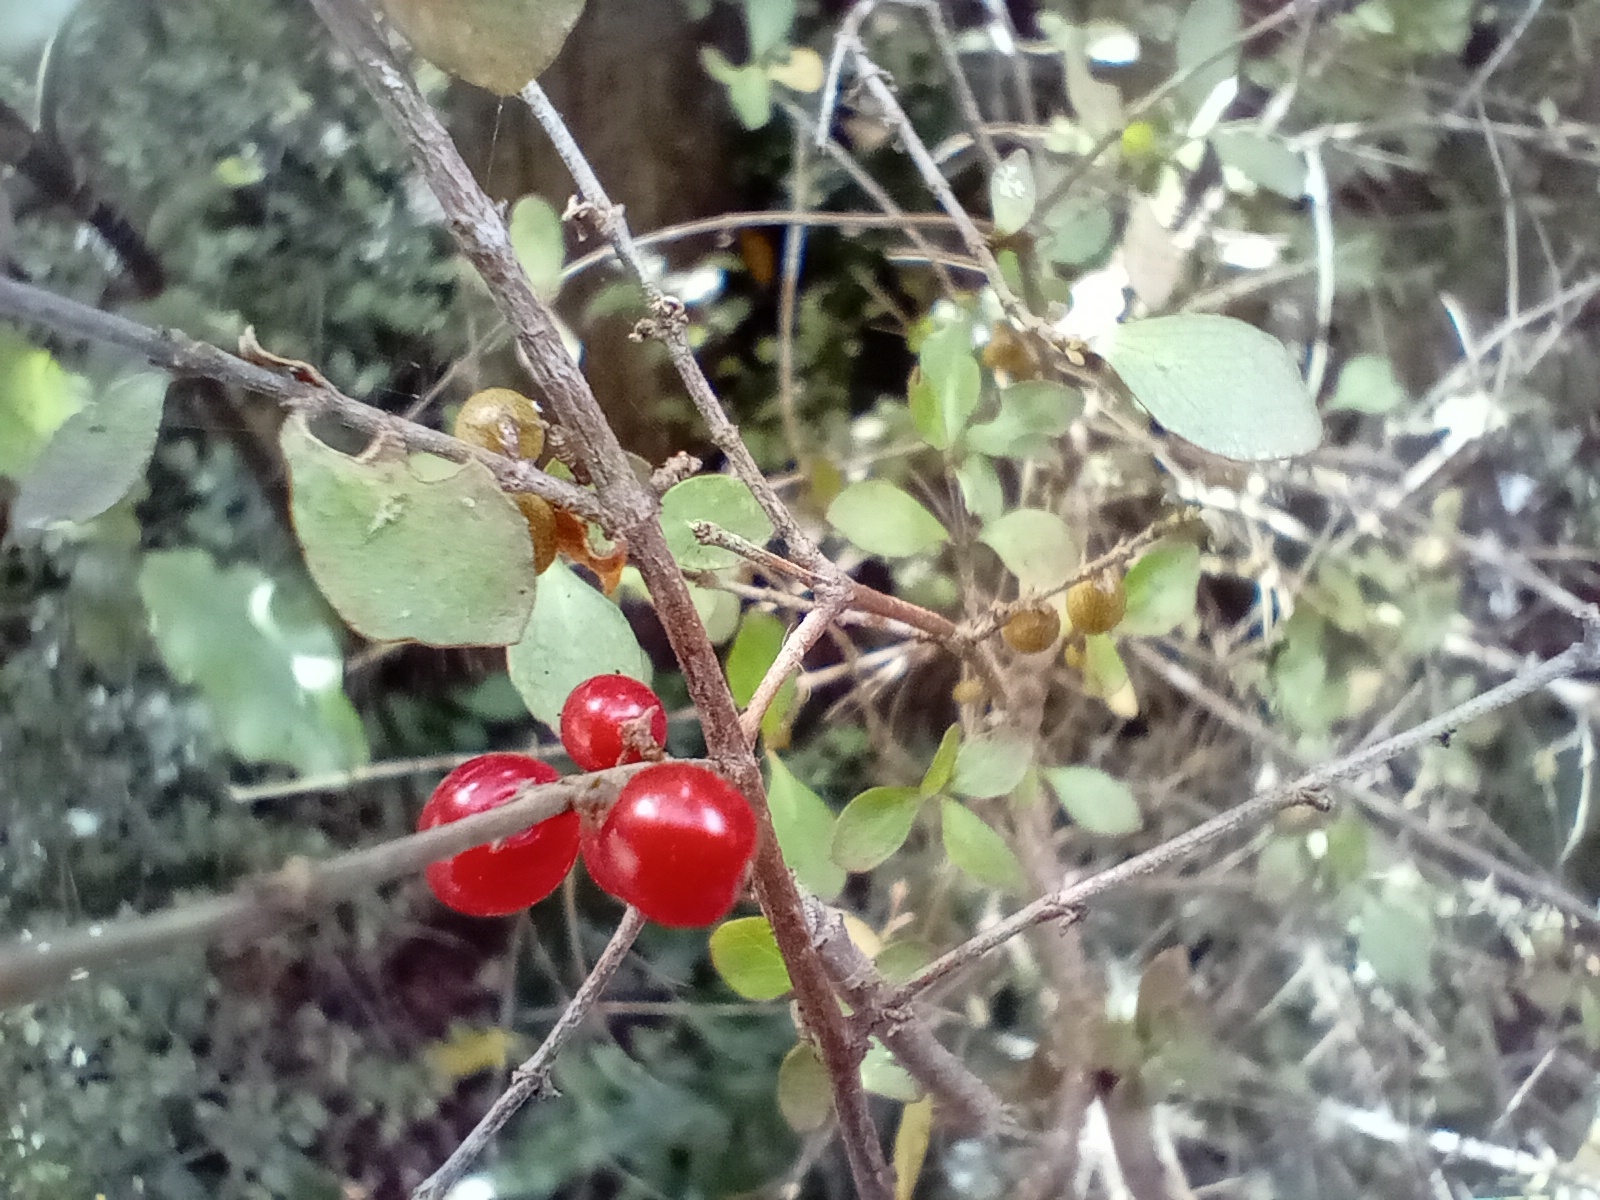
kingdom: Plantae
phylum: Tracheophyta
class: Magnoliopsida
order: Gentianales
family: Rubiaceae
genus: Coprosma
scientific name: Coprosma rhamnoides
